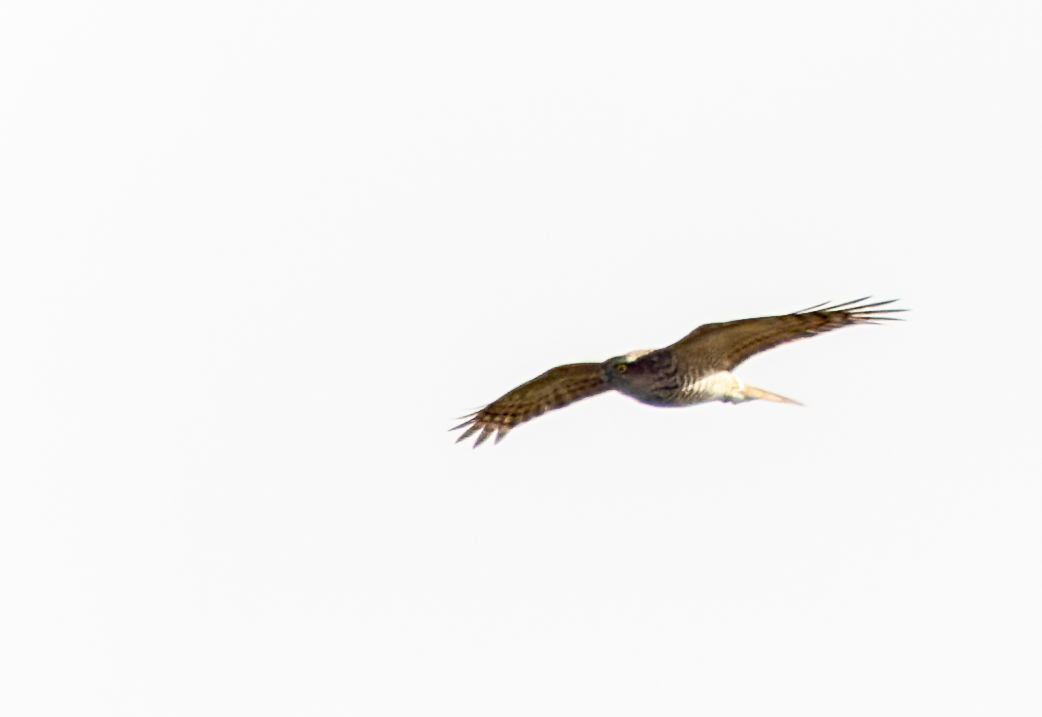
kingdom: Animalia
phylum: Chordata
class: Aves
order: Accipitriformes
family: Accipitridae
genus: Accipiter
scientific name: Accipiter nisus
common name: Eurasian sparrowhawk
